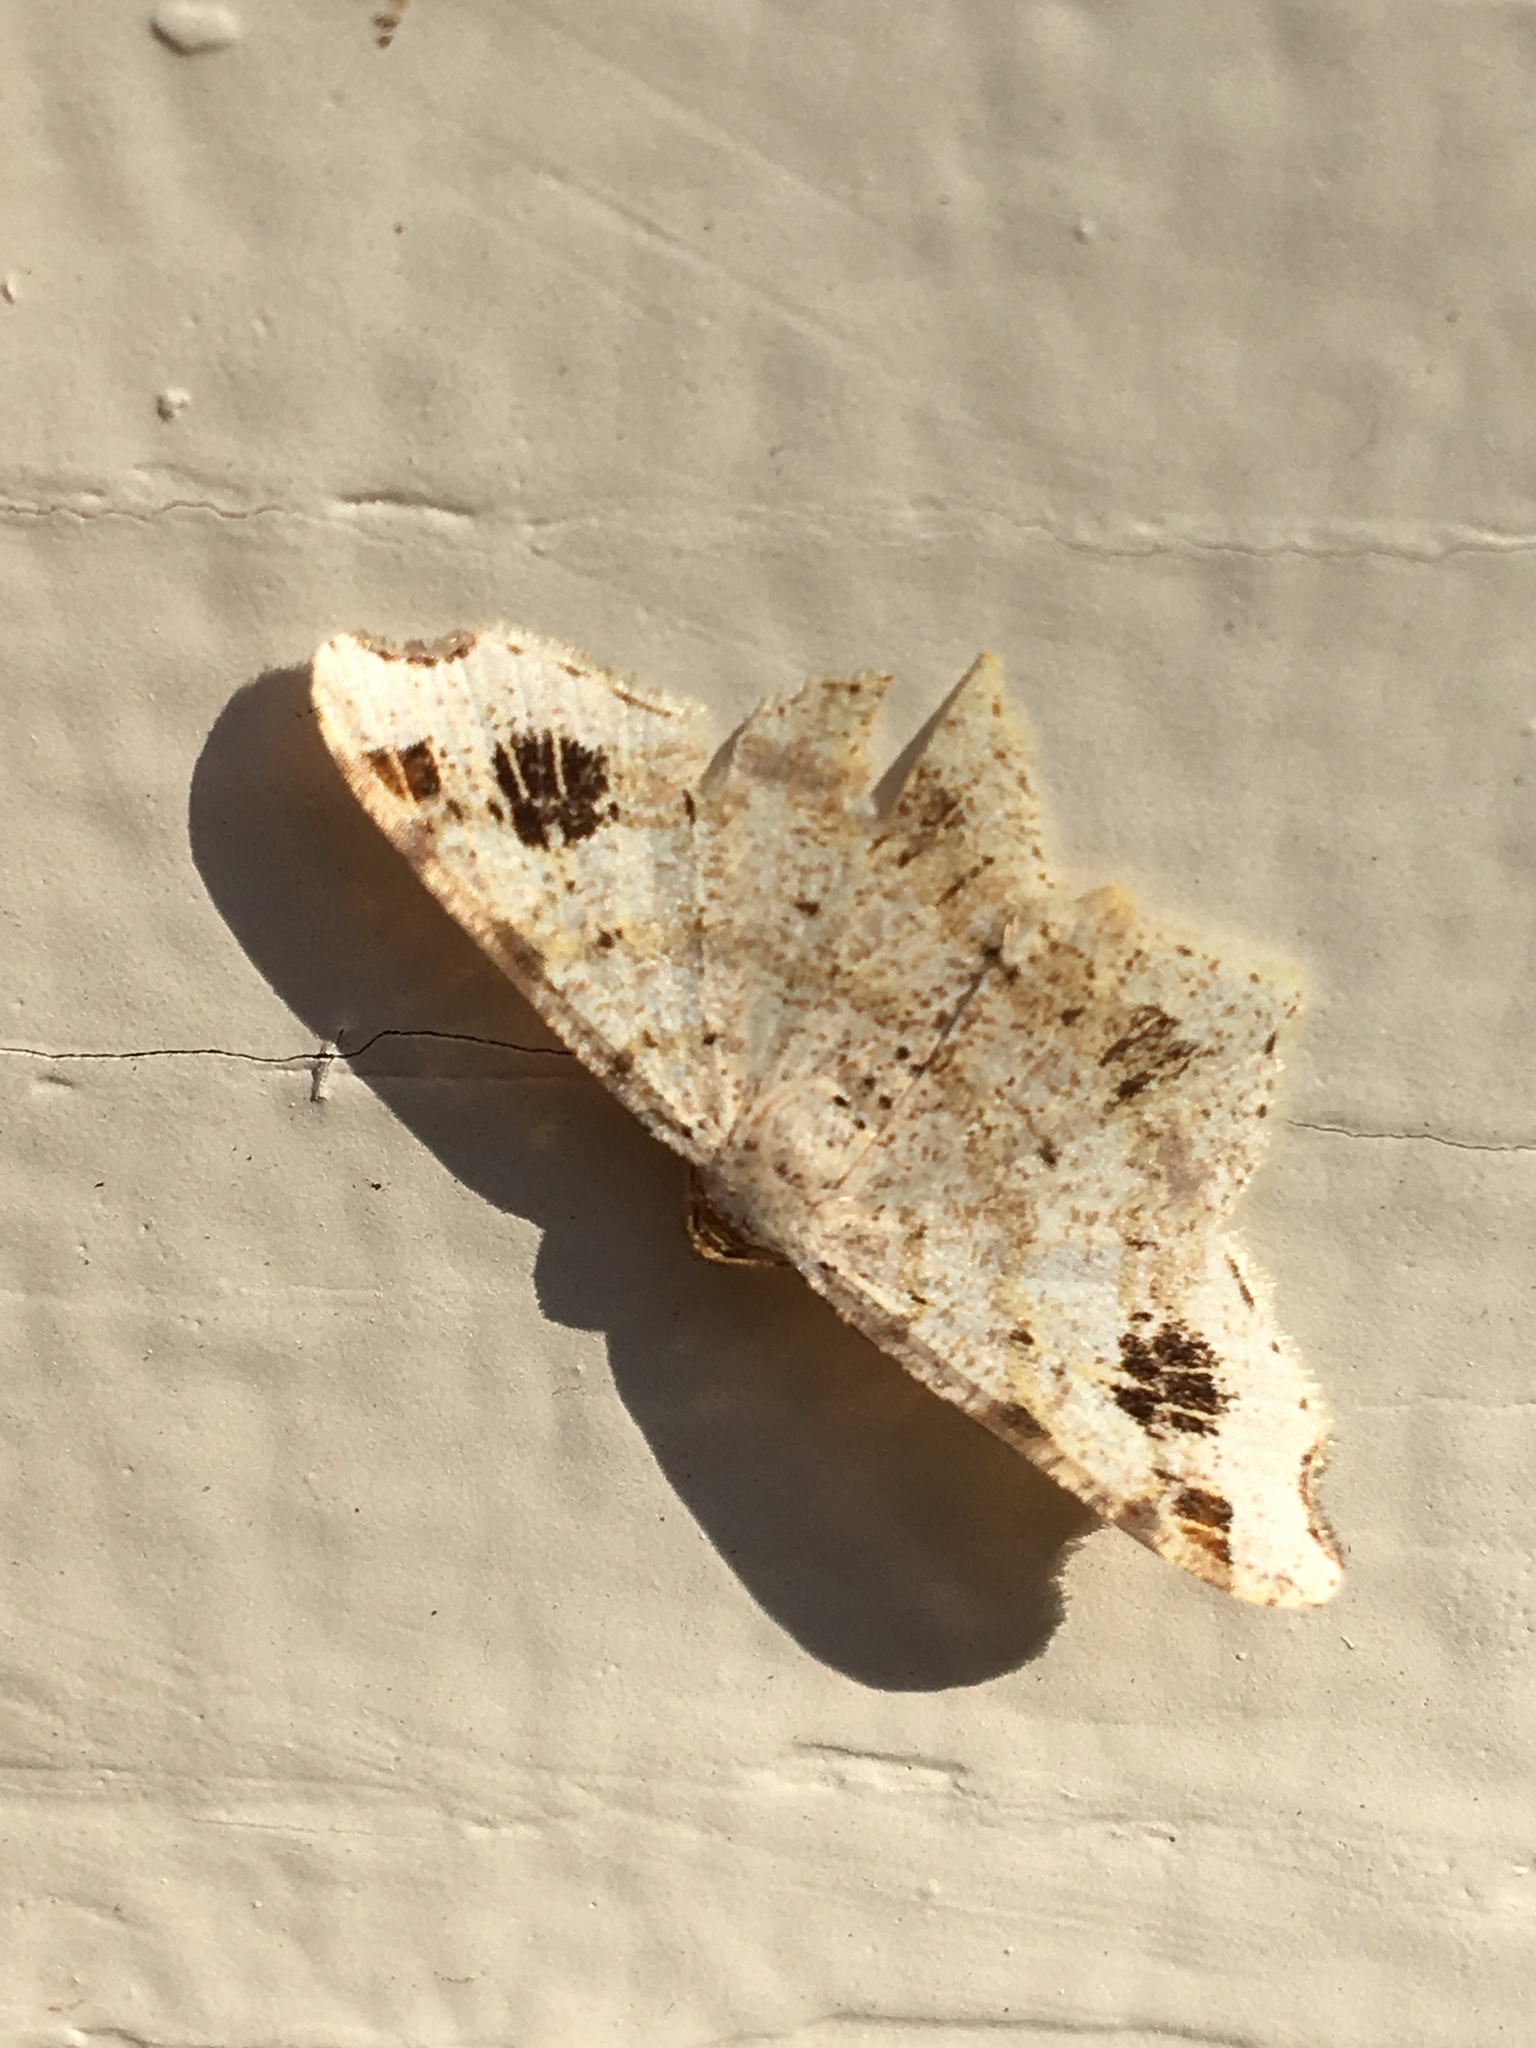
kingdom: Animalia
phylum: Arthropoda
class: Insecta
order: Lepidoptera
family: Geometridae
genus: Macaria
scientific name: Macaria aemulataria
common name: Common angle
